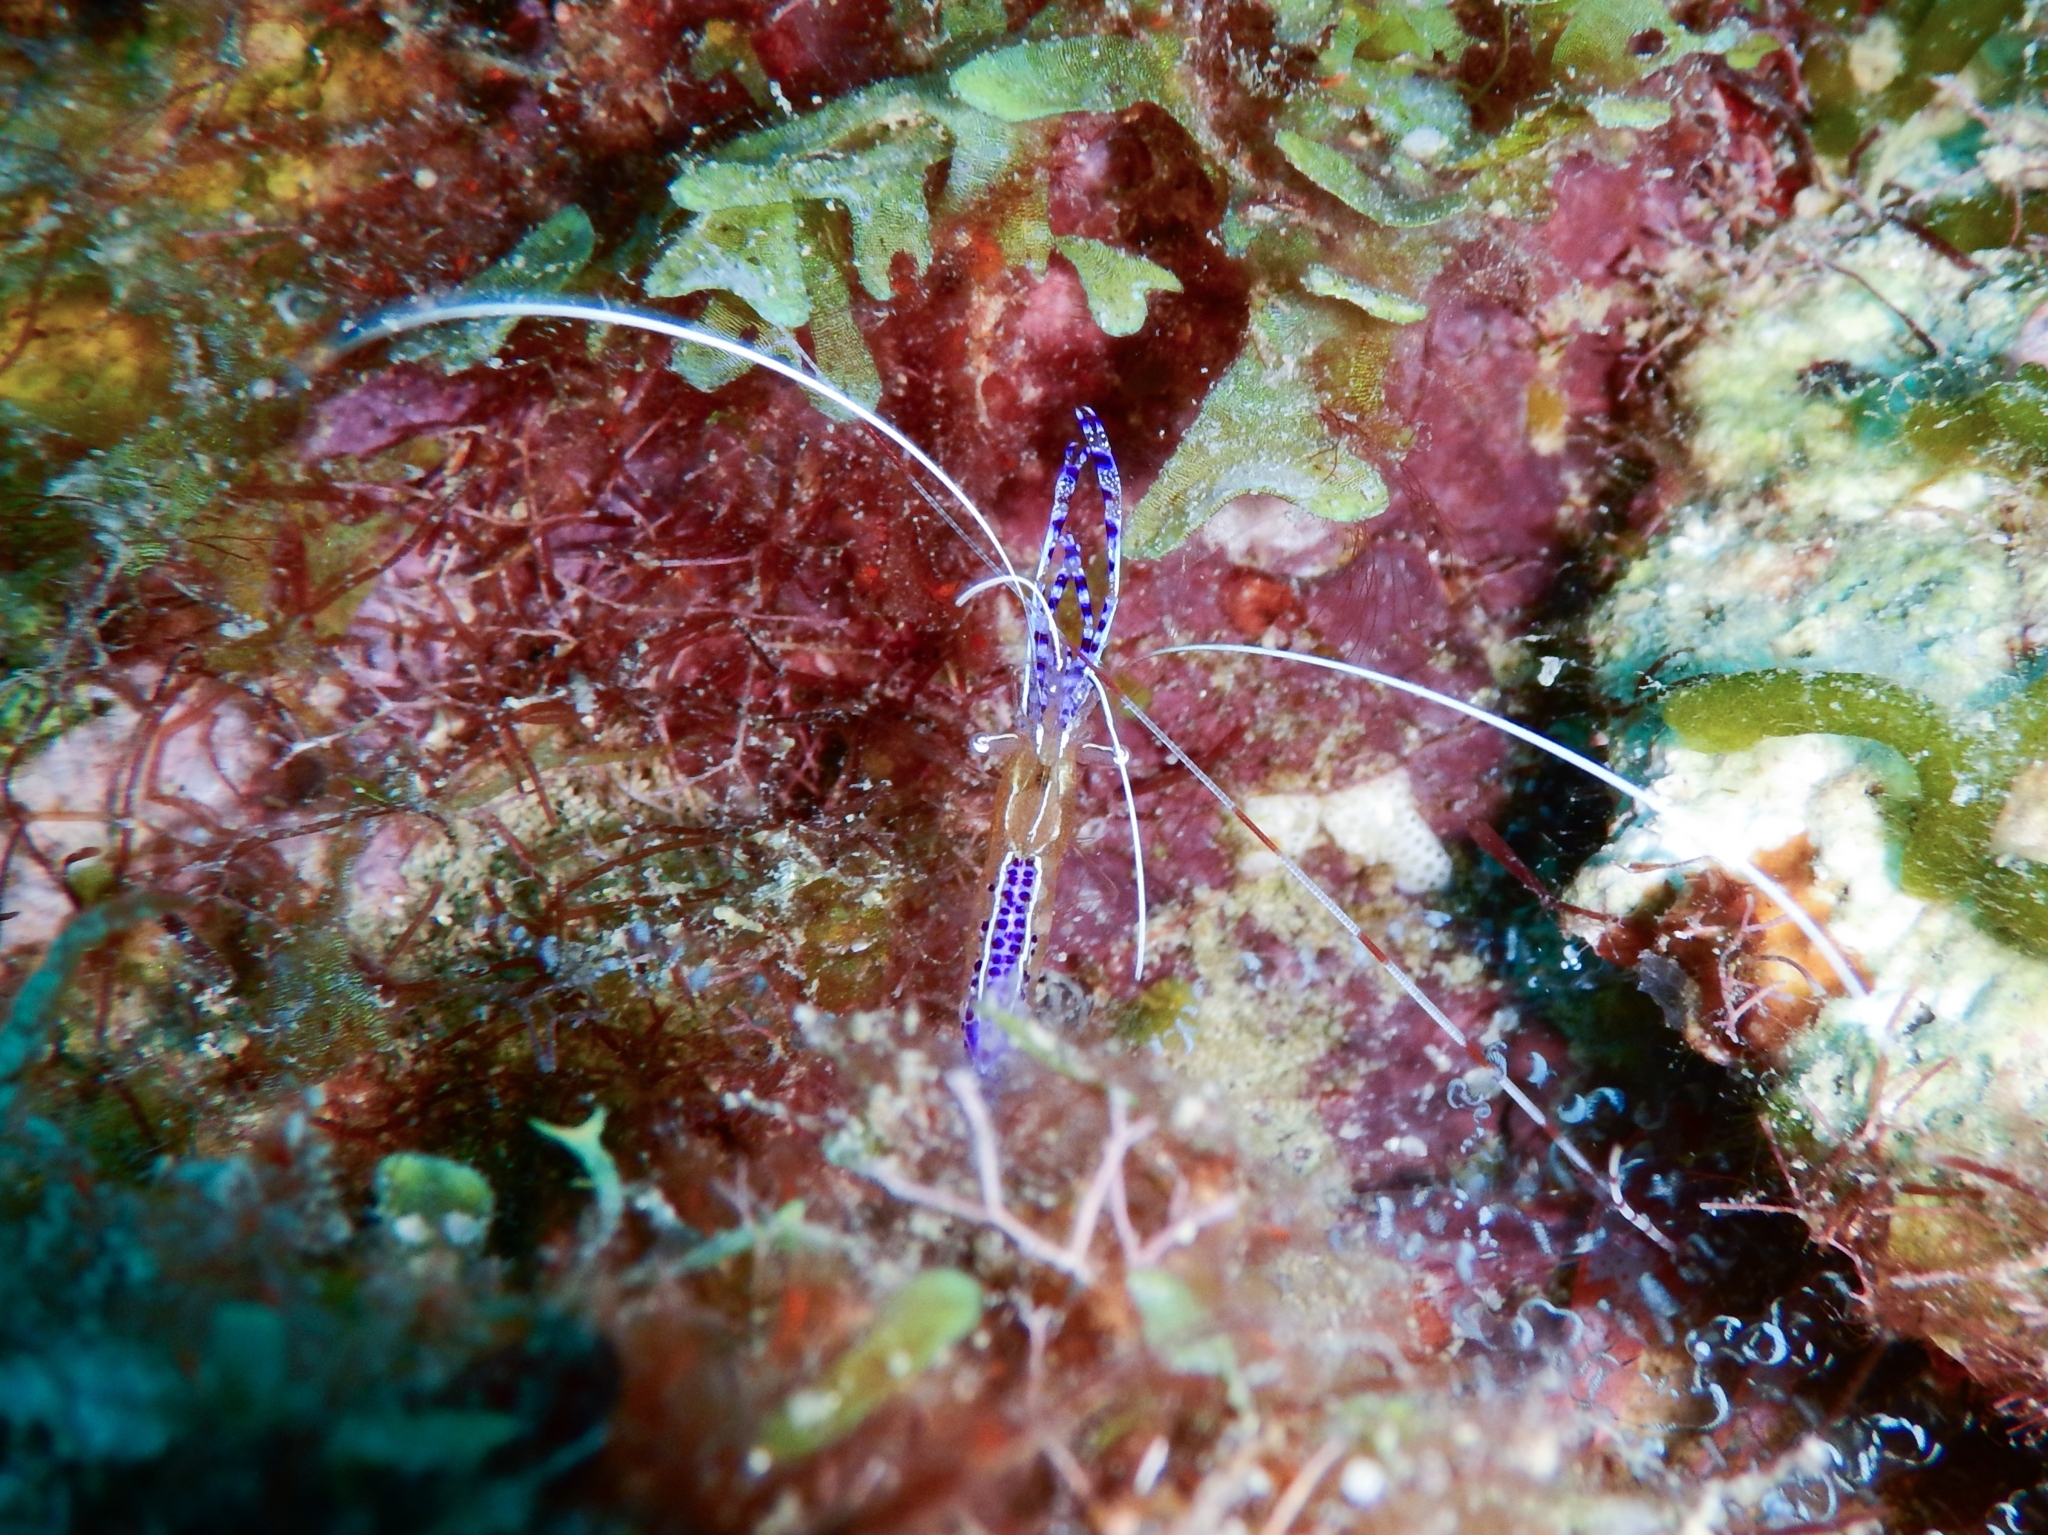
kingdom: Animalia
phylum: Arthropoda
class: Malacostraca
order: Decapoda
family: Palaemonidae
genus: Ancylomenes
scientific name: Ancylomenes pedersoni
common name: Pederson's cleaning shrimp
